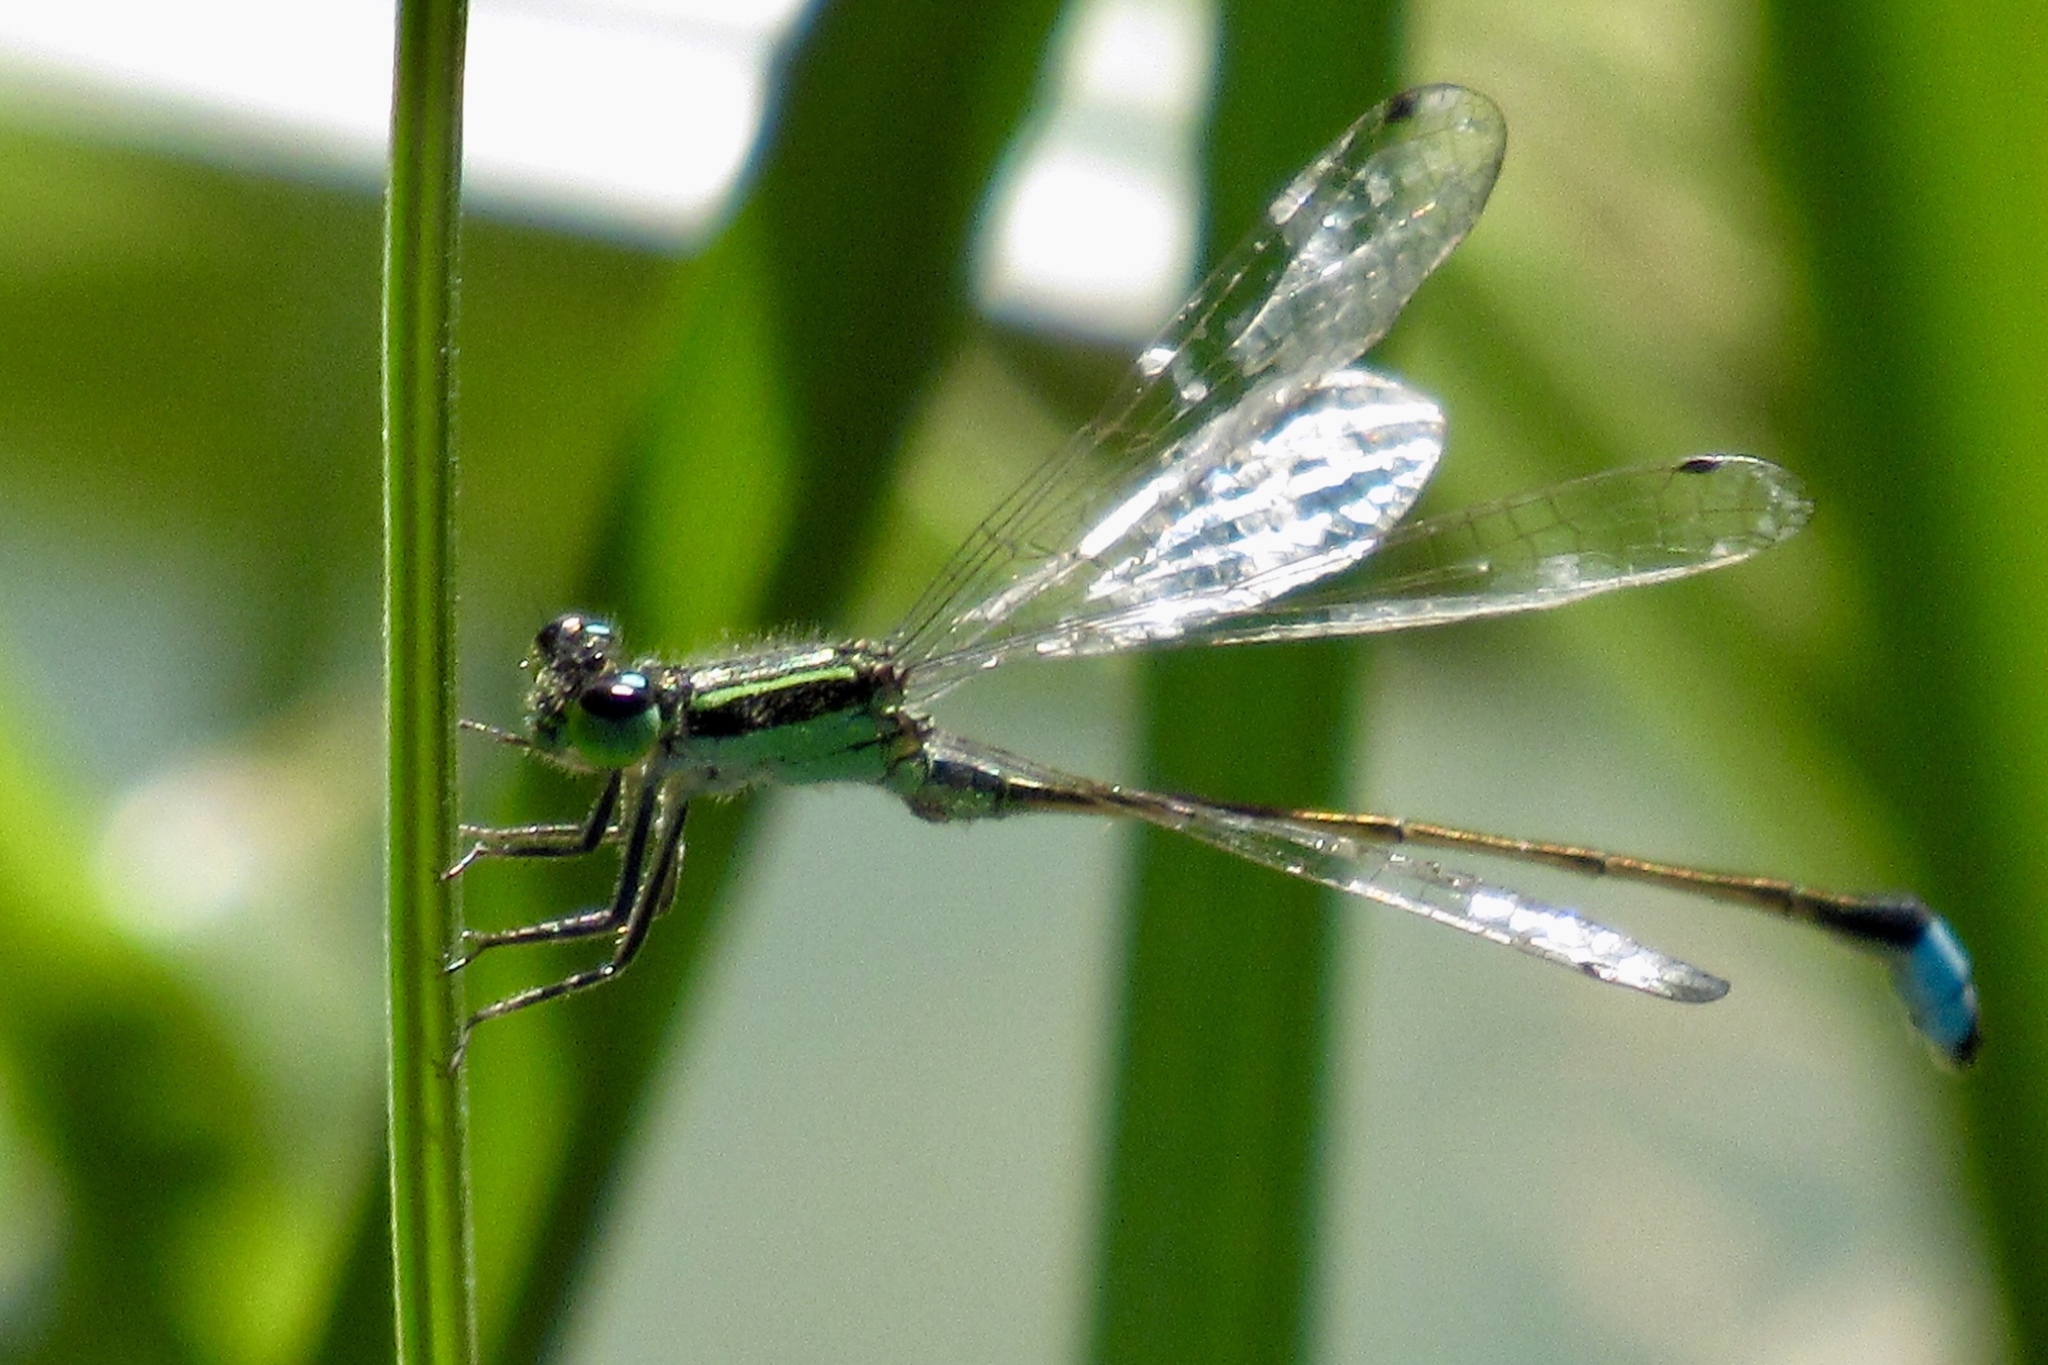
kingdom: Animalia
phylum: Arthropoda
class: Insecta
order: Odonata
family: Coenagrionidae
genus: Ischnura
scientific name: Ischnura ramburii
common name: Rambur's forktail
